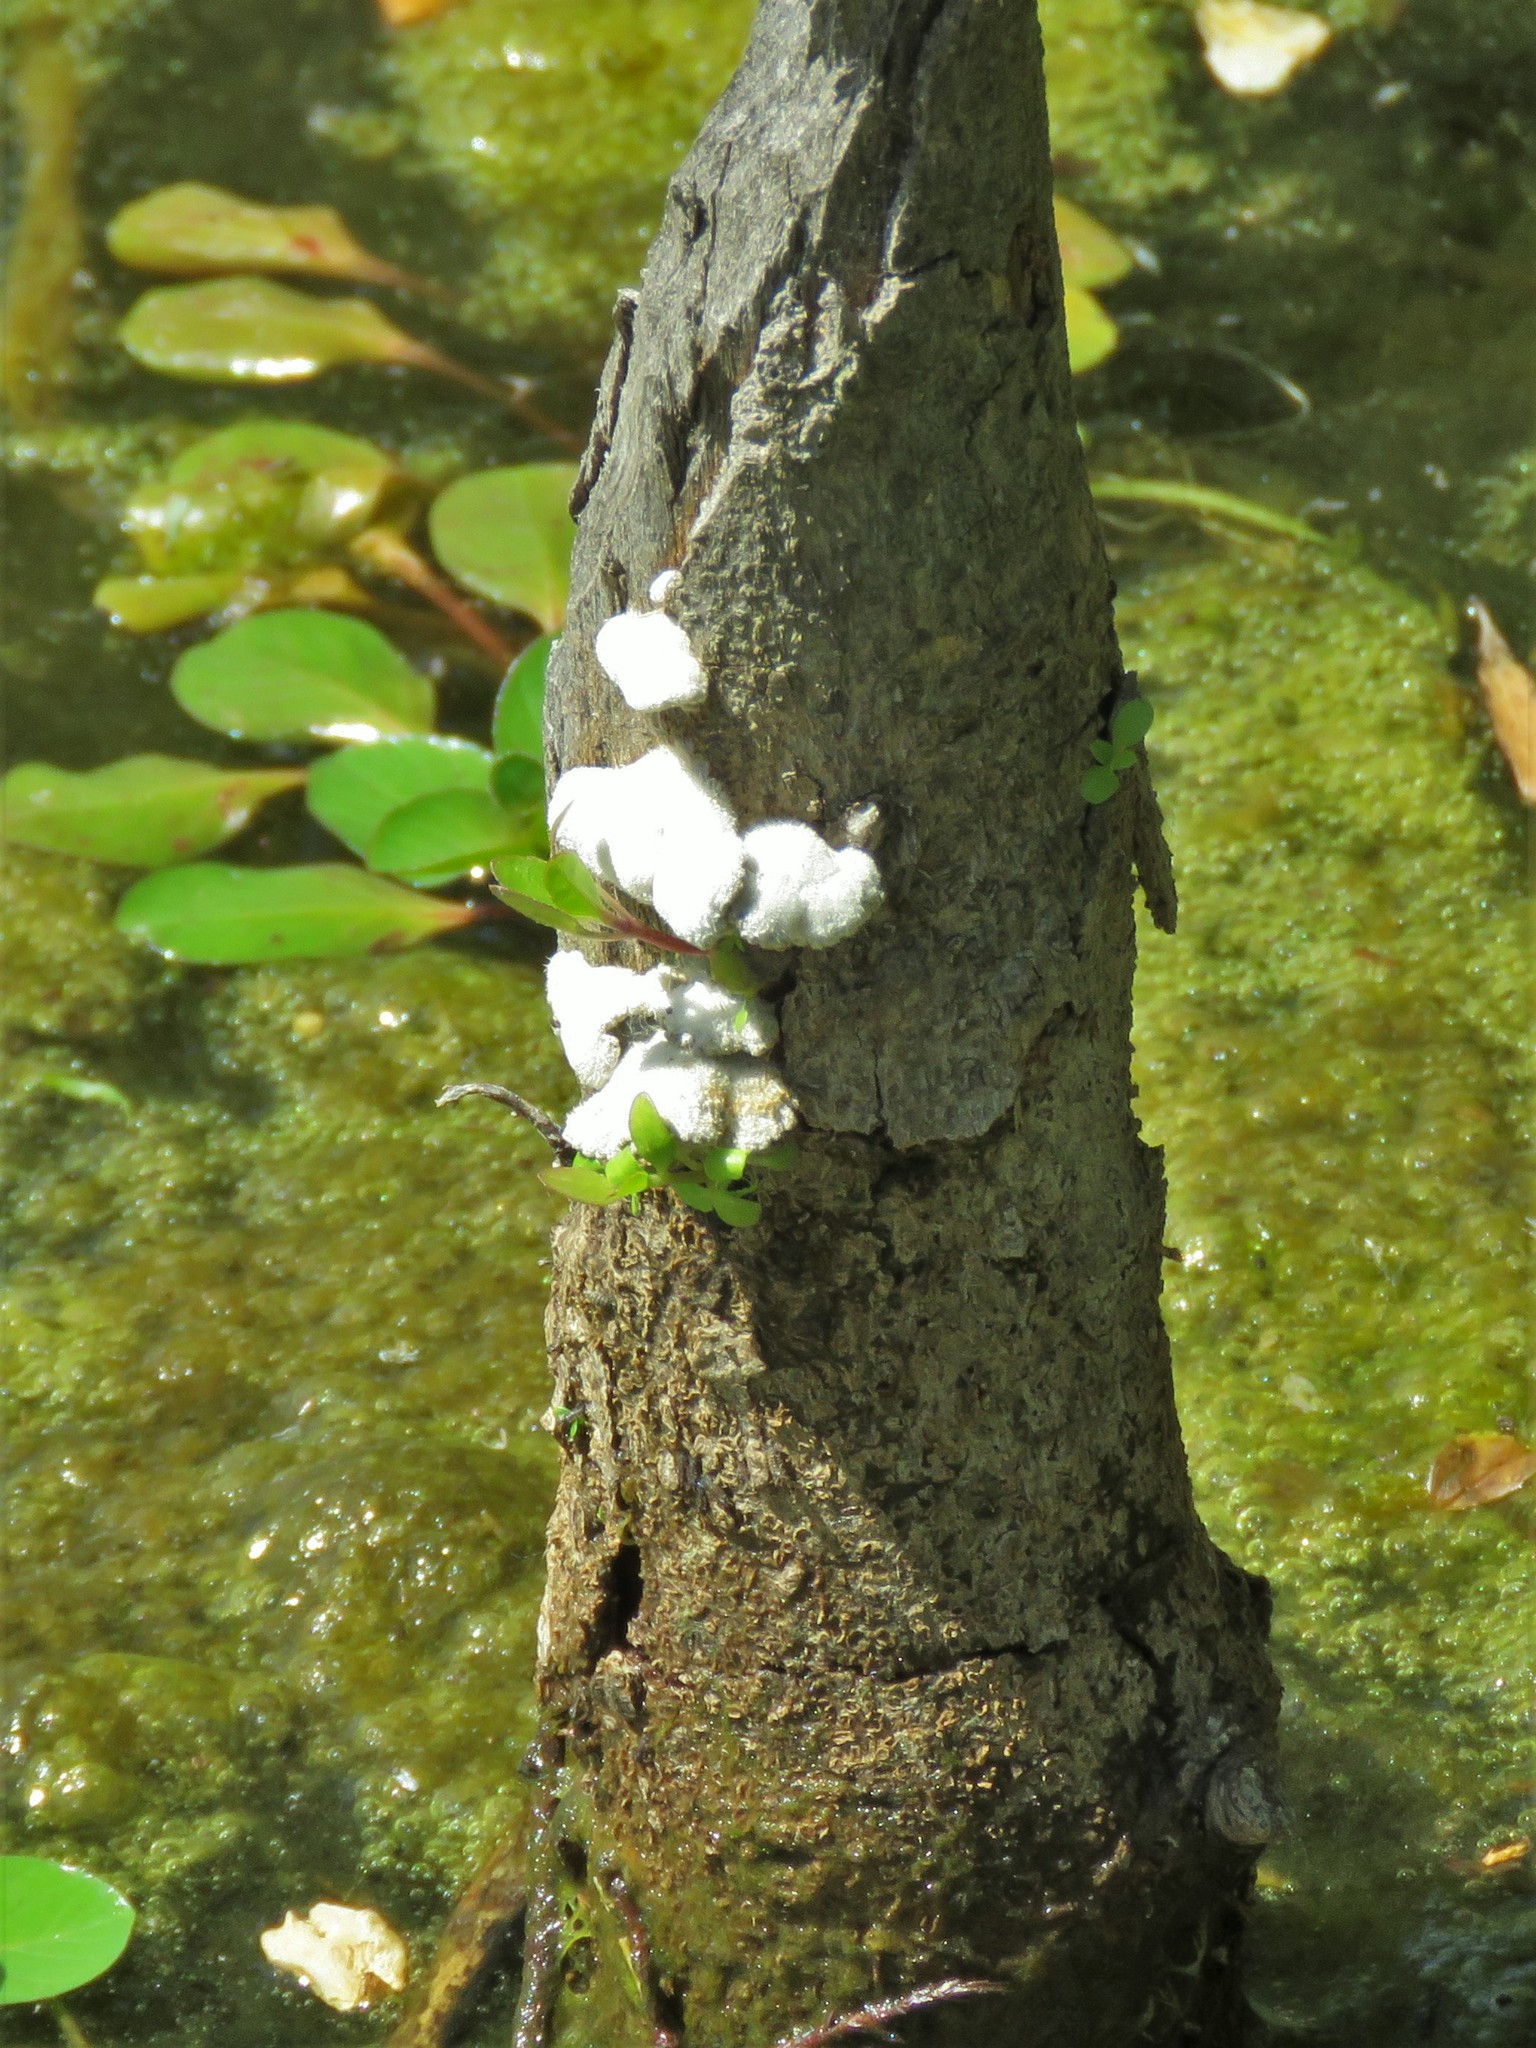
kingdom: Fungi
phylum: Basidiomycota
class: Agaricomycetes
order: Agaricales
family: Schizophyllaceae
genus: Schizophyllum
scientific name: Schizophyllum commune
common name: Common porecrust
